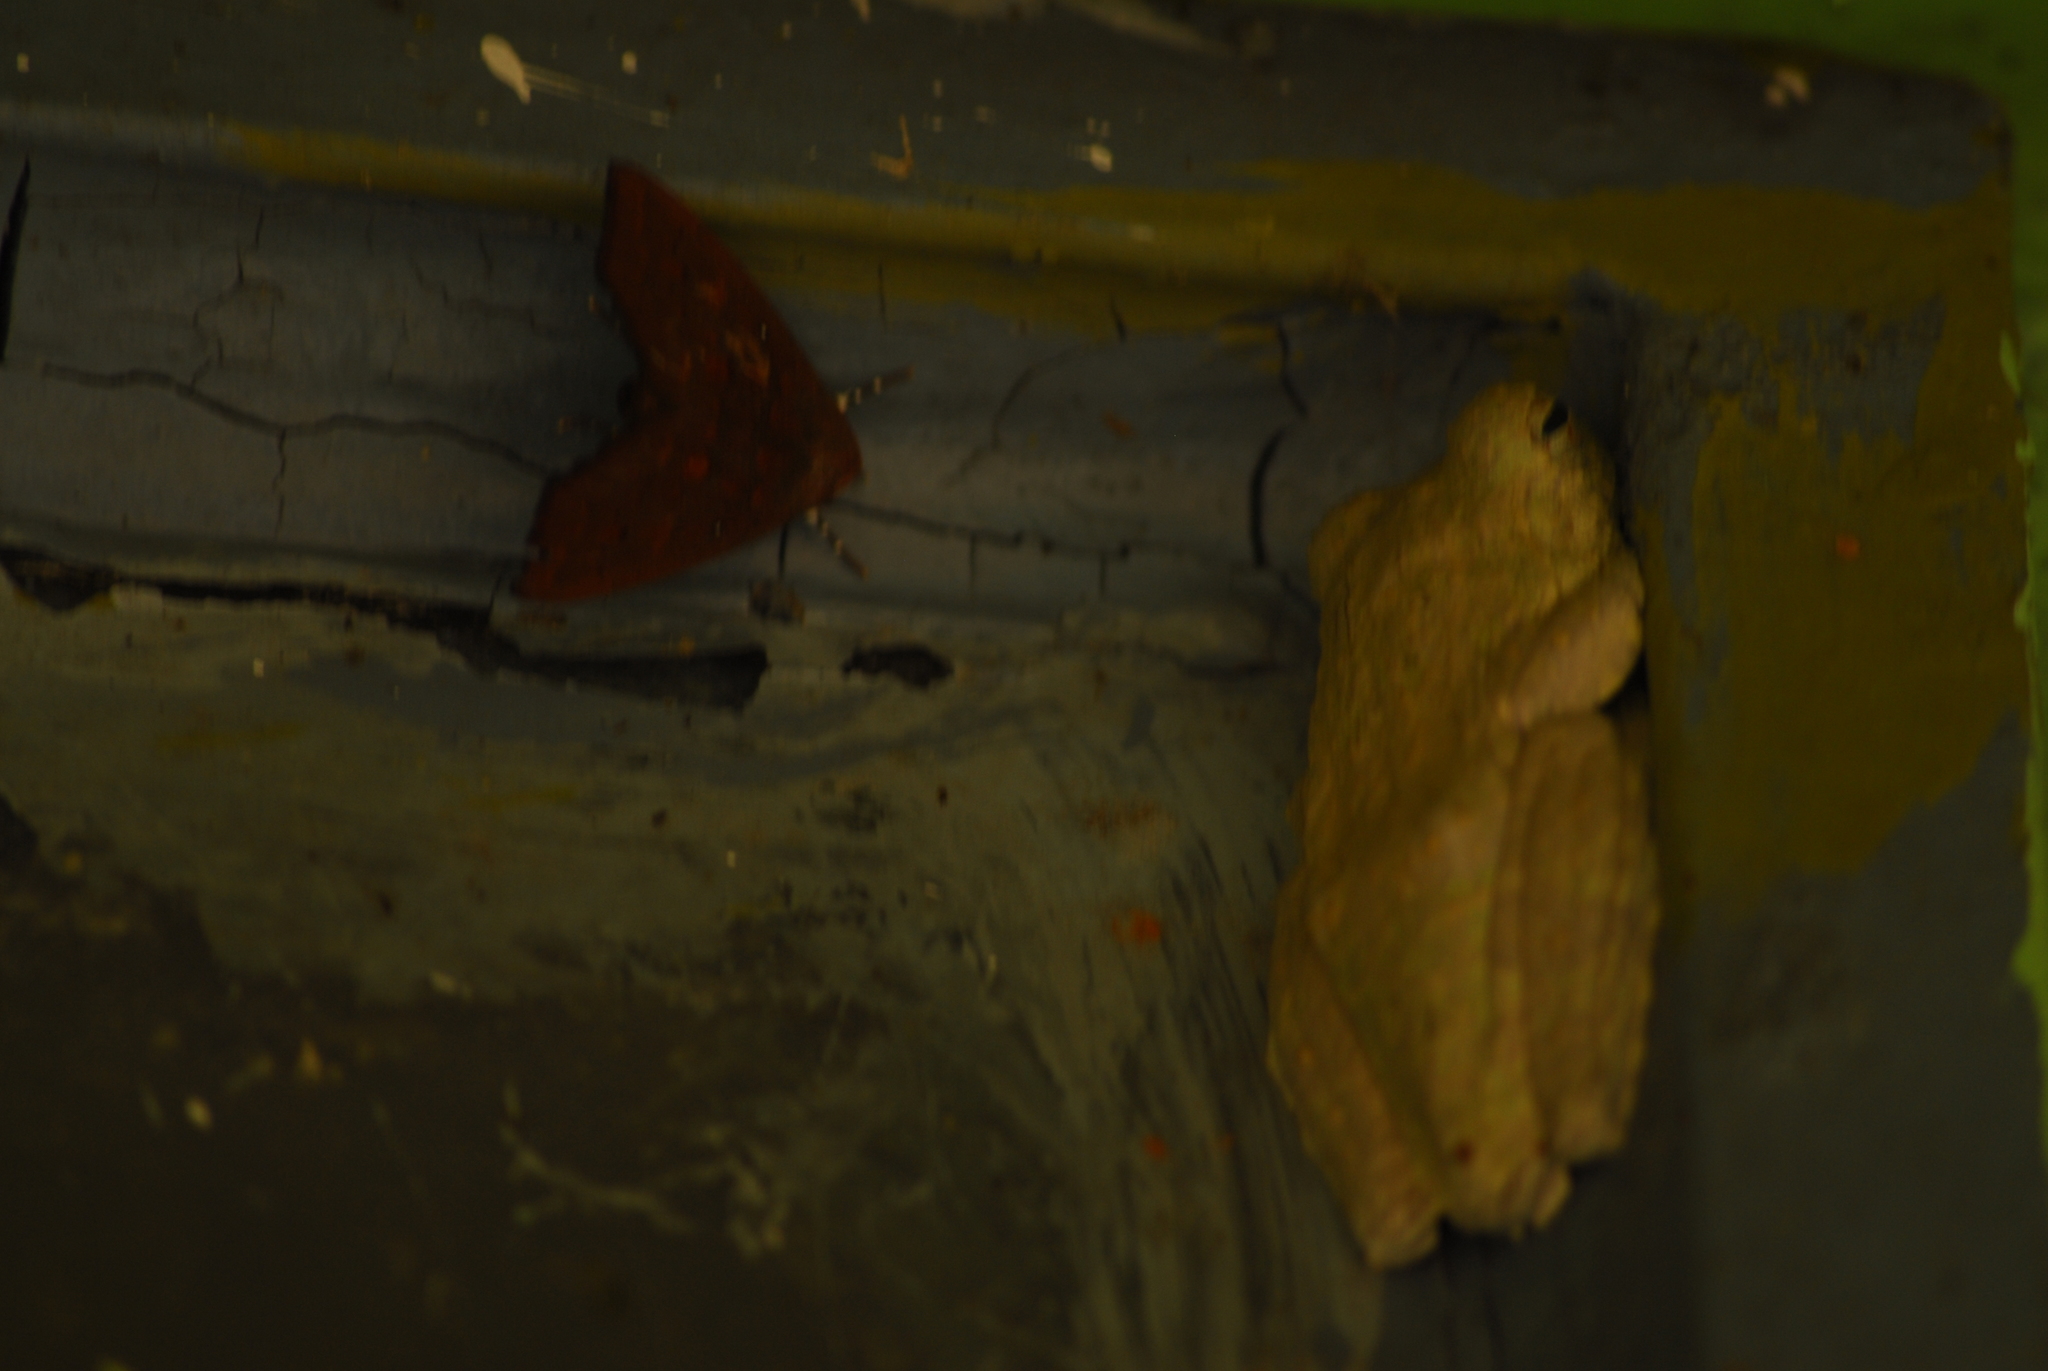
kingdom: Animalia
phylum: Chordata
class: Amphibia
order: Anura
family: Rhacophoridae
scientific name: Rhacophoridae
